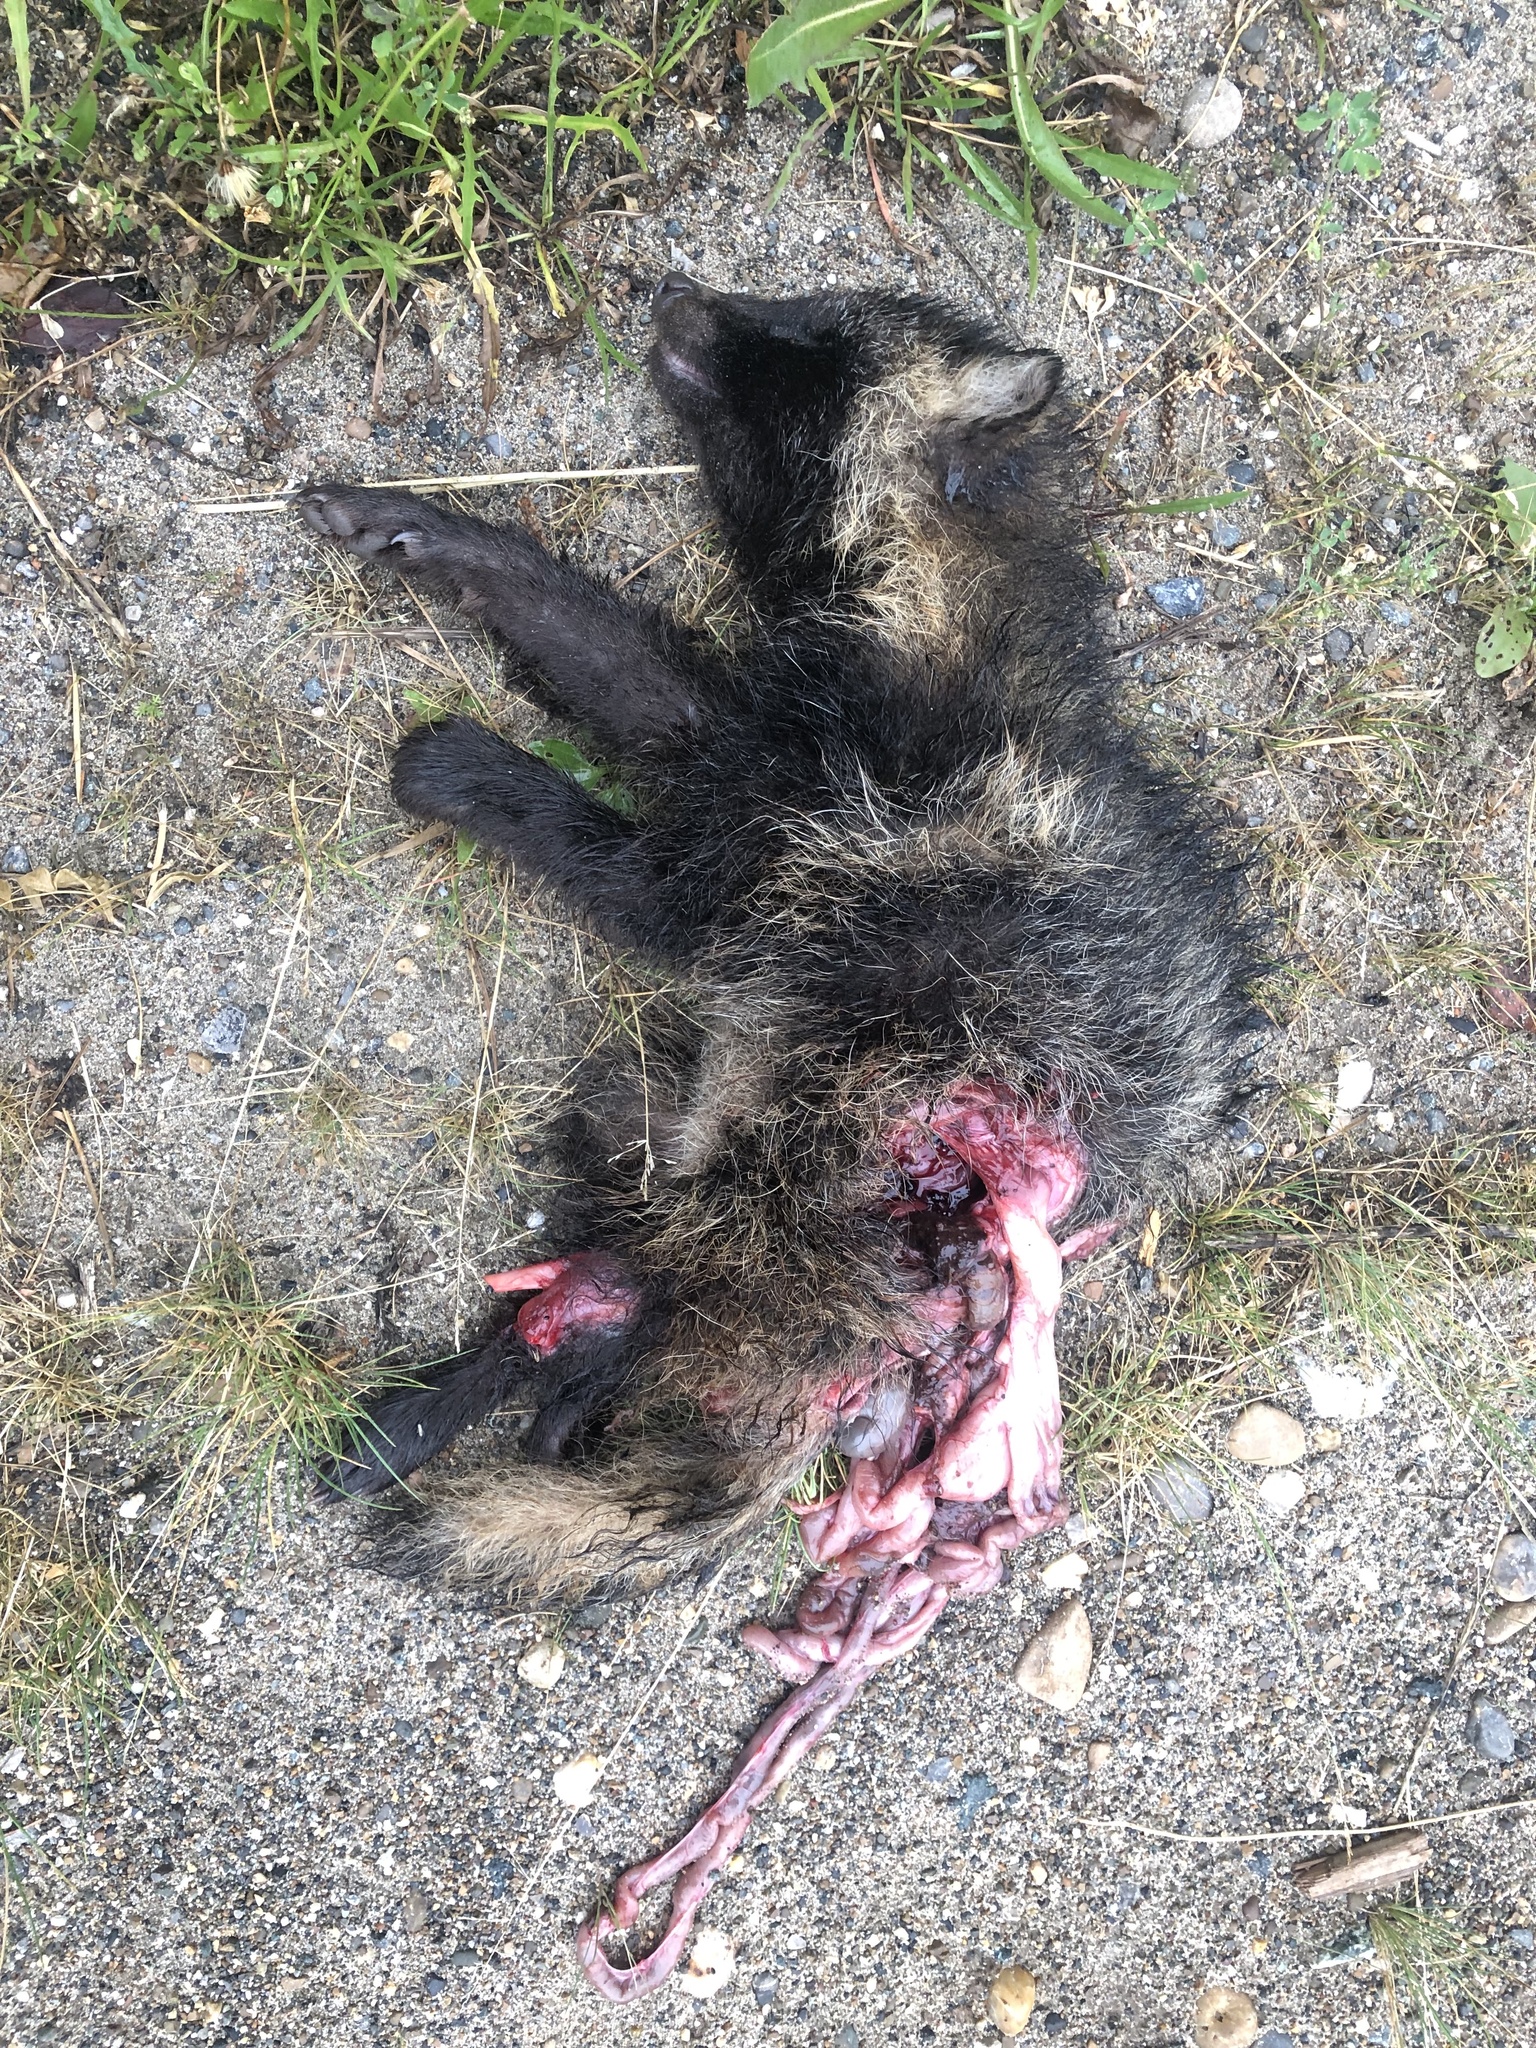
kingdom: Animalia
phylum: Chordata
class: Mammalia
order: Carnivora
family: Canidae
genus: Nyctereutes
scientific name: Nyctereutes procyonoides
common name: Raccoon dog
